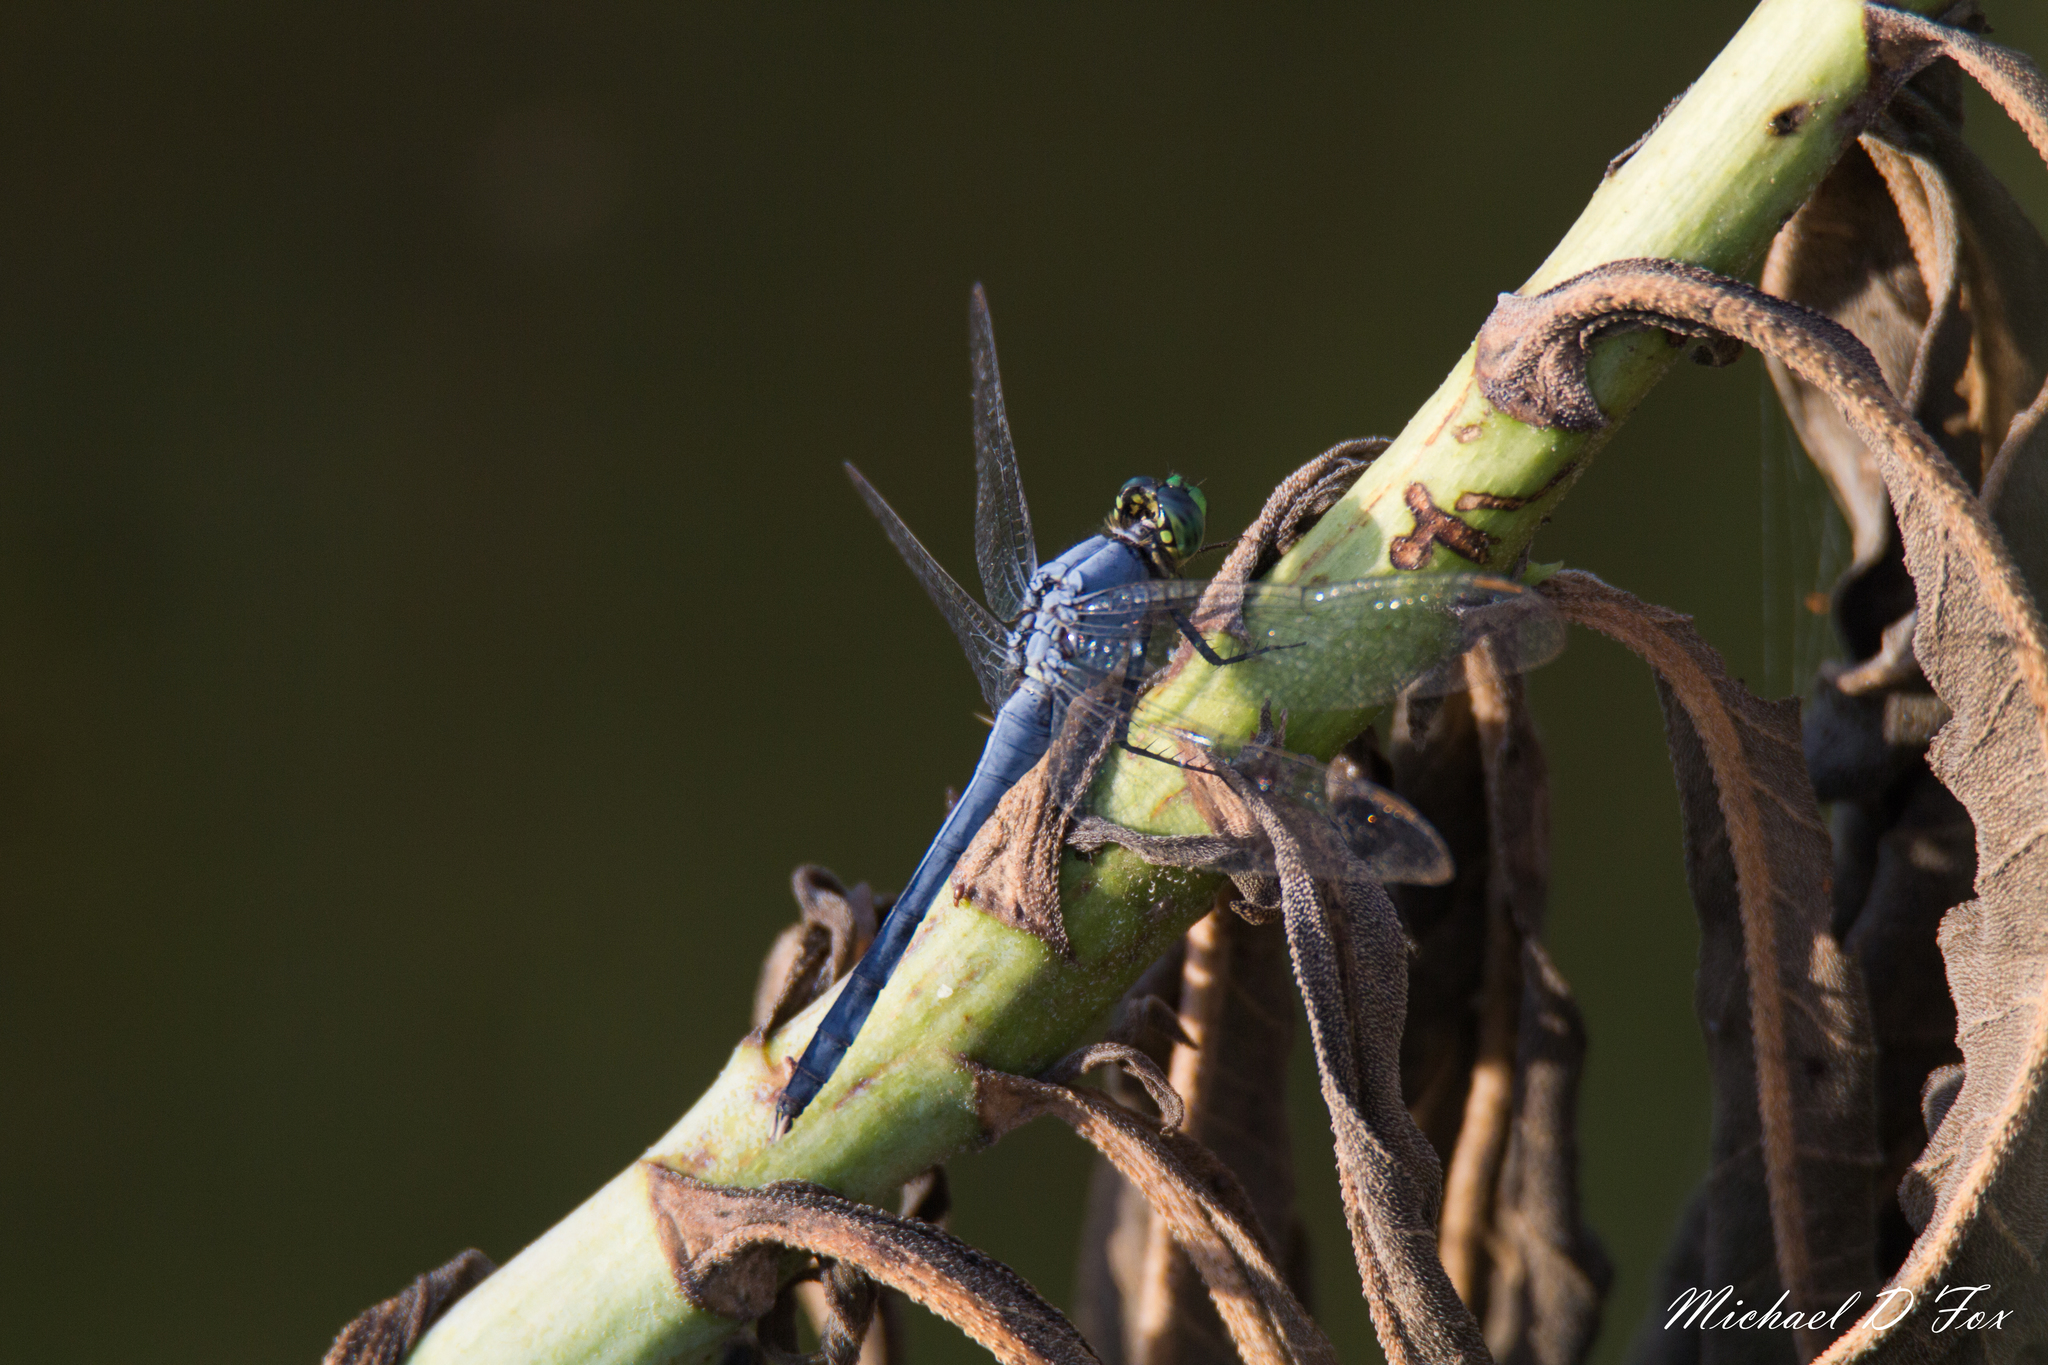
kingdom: Animalia
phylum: Arthropoda
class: Insecta
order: Odonata
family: Libellulidae
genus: Erythemis
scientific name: Erythemis simplicicollis
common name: Eastern pondhawk
